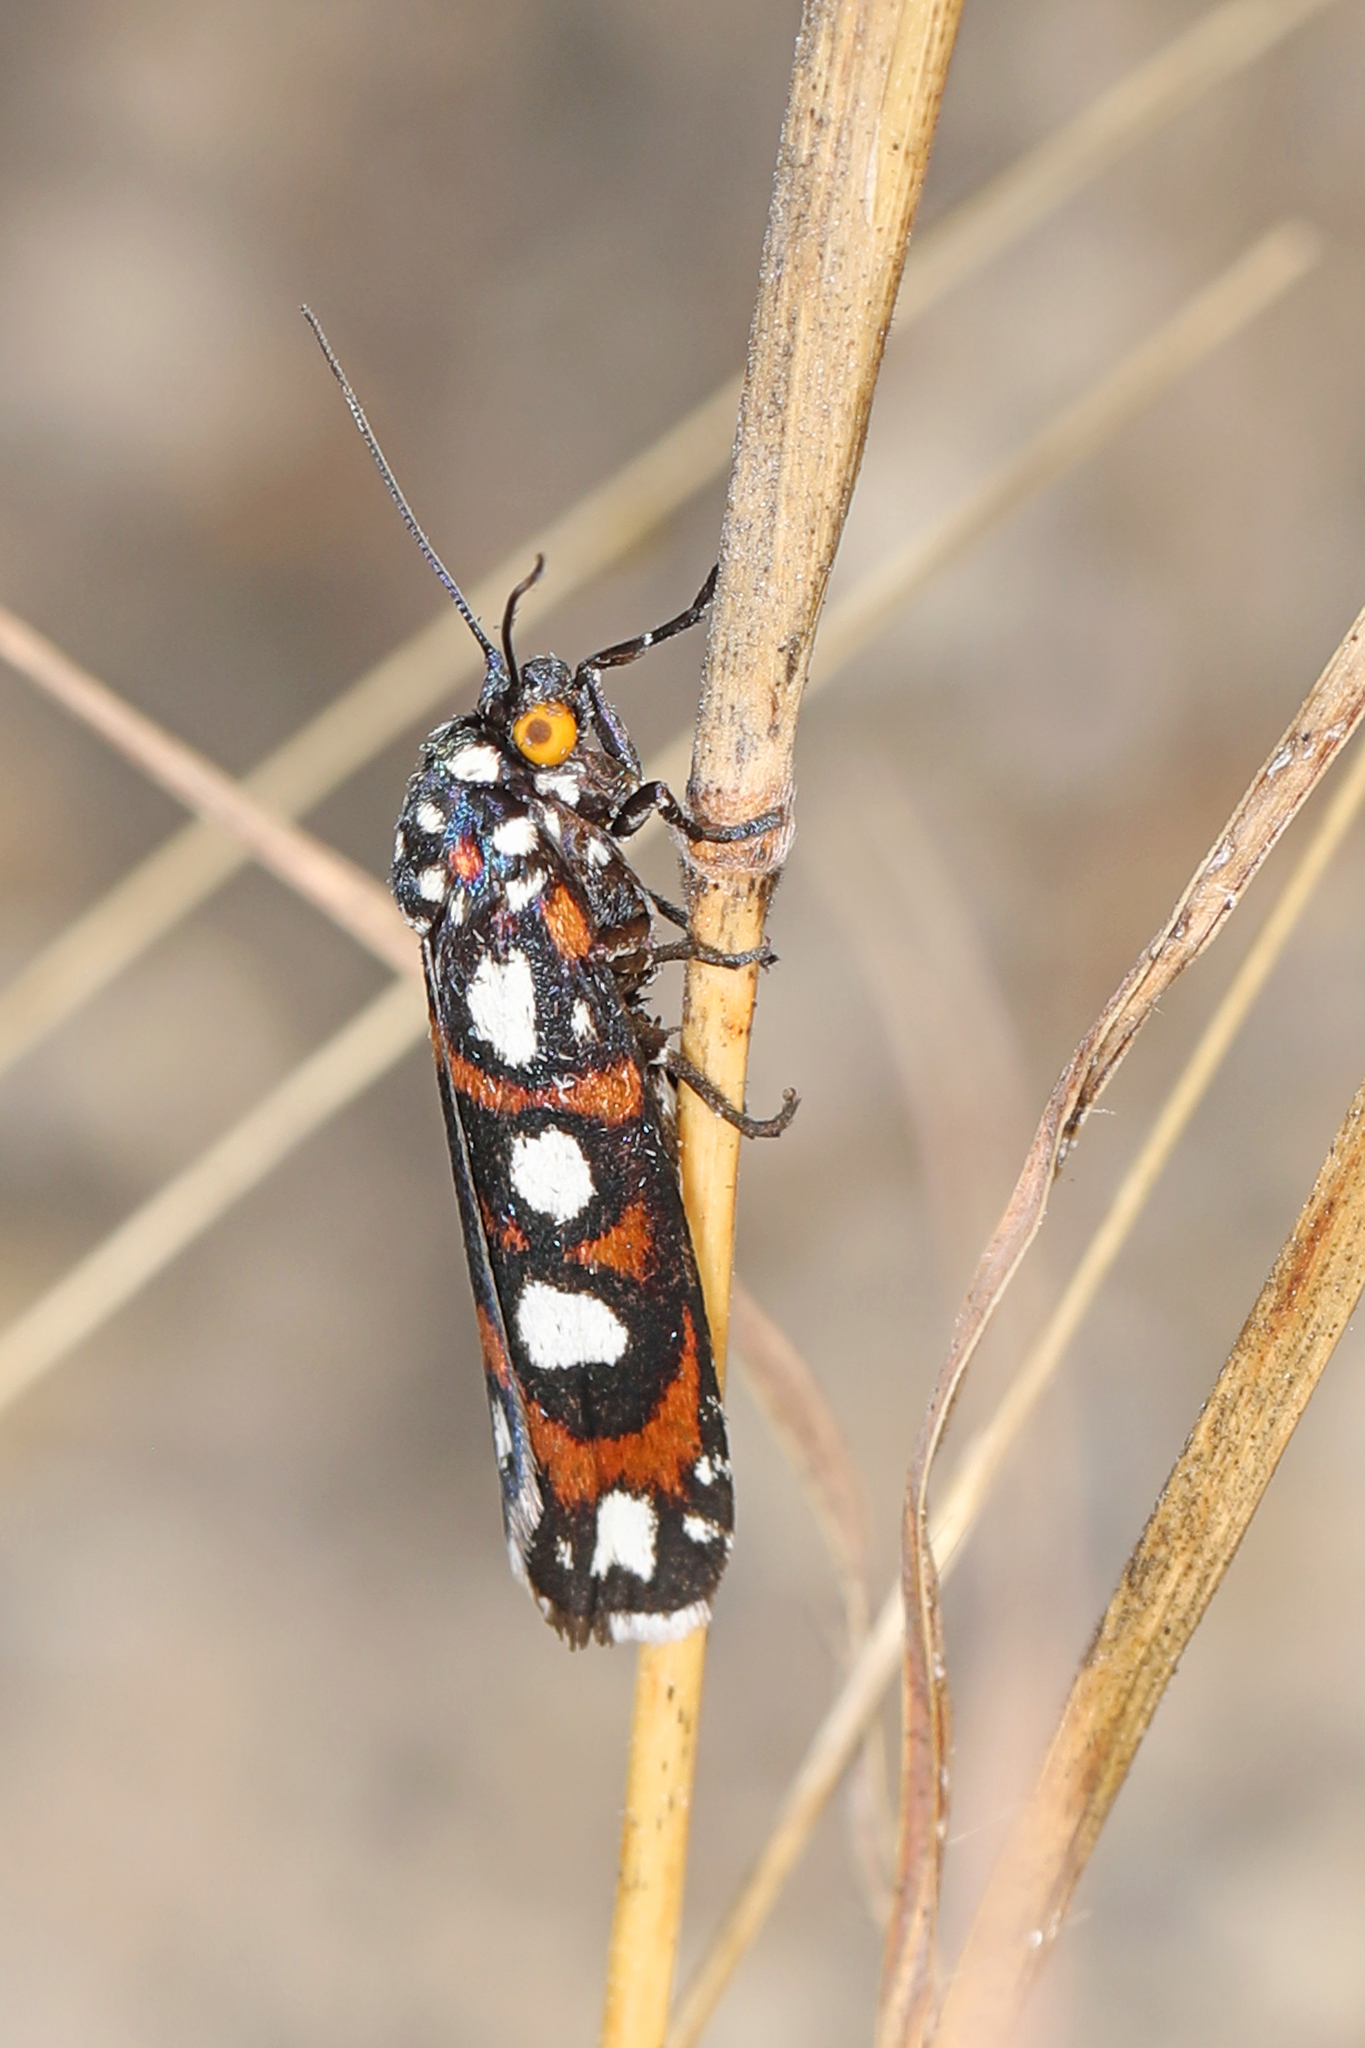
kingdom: Animalia
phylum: Arthropoda
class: Insecta
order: Lepidoptera
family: Noctuidae
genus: Cydosia
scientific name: Cydosia nobilitella
